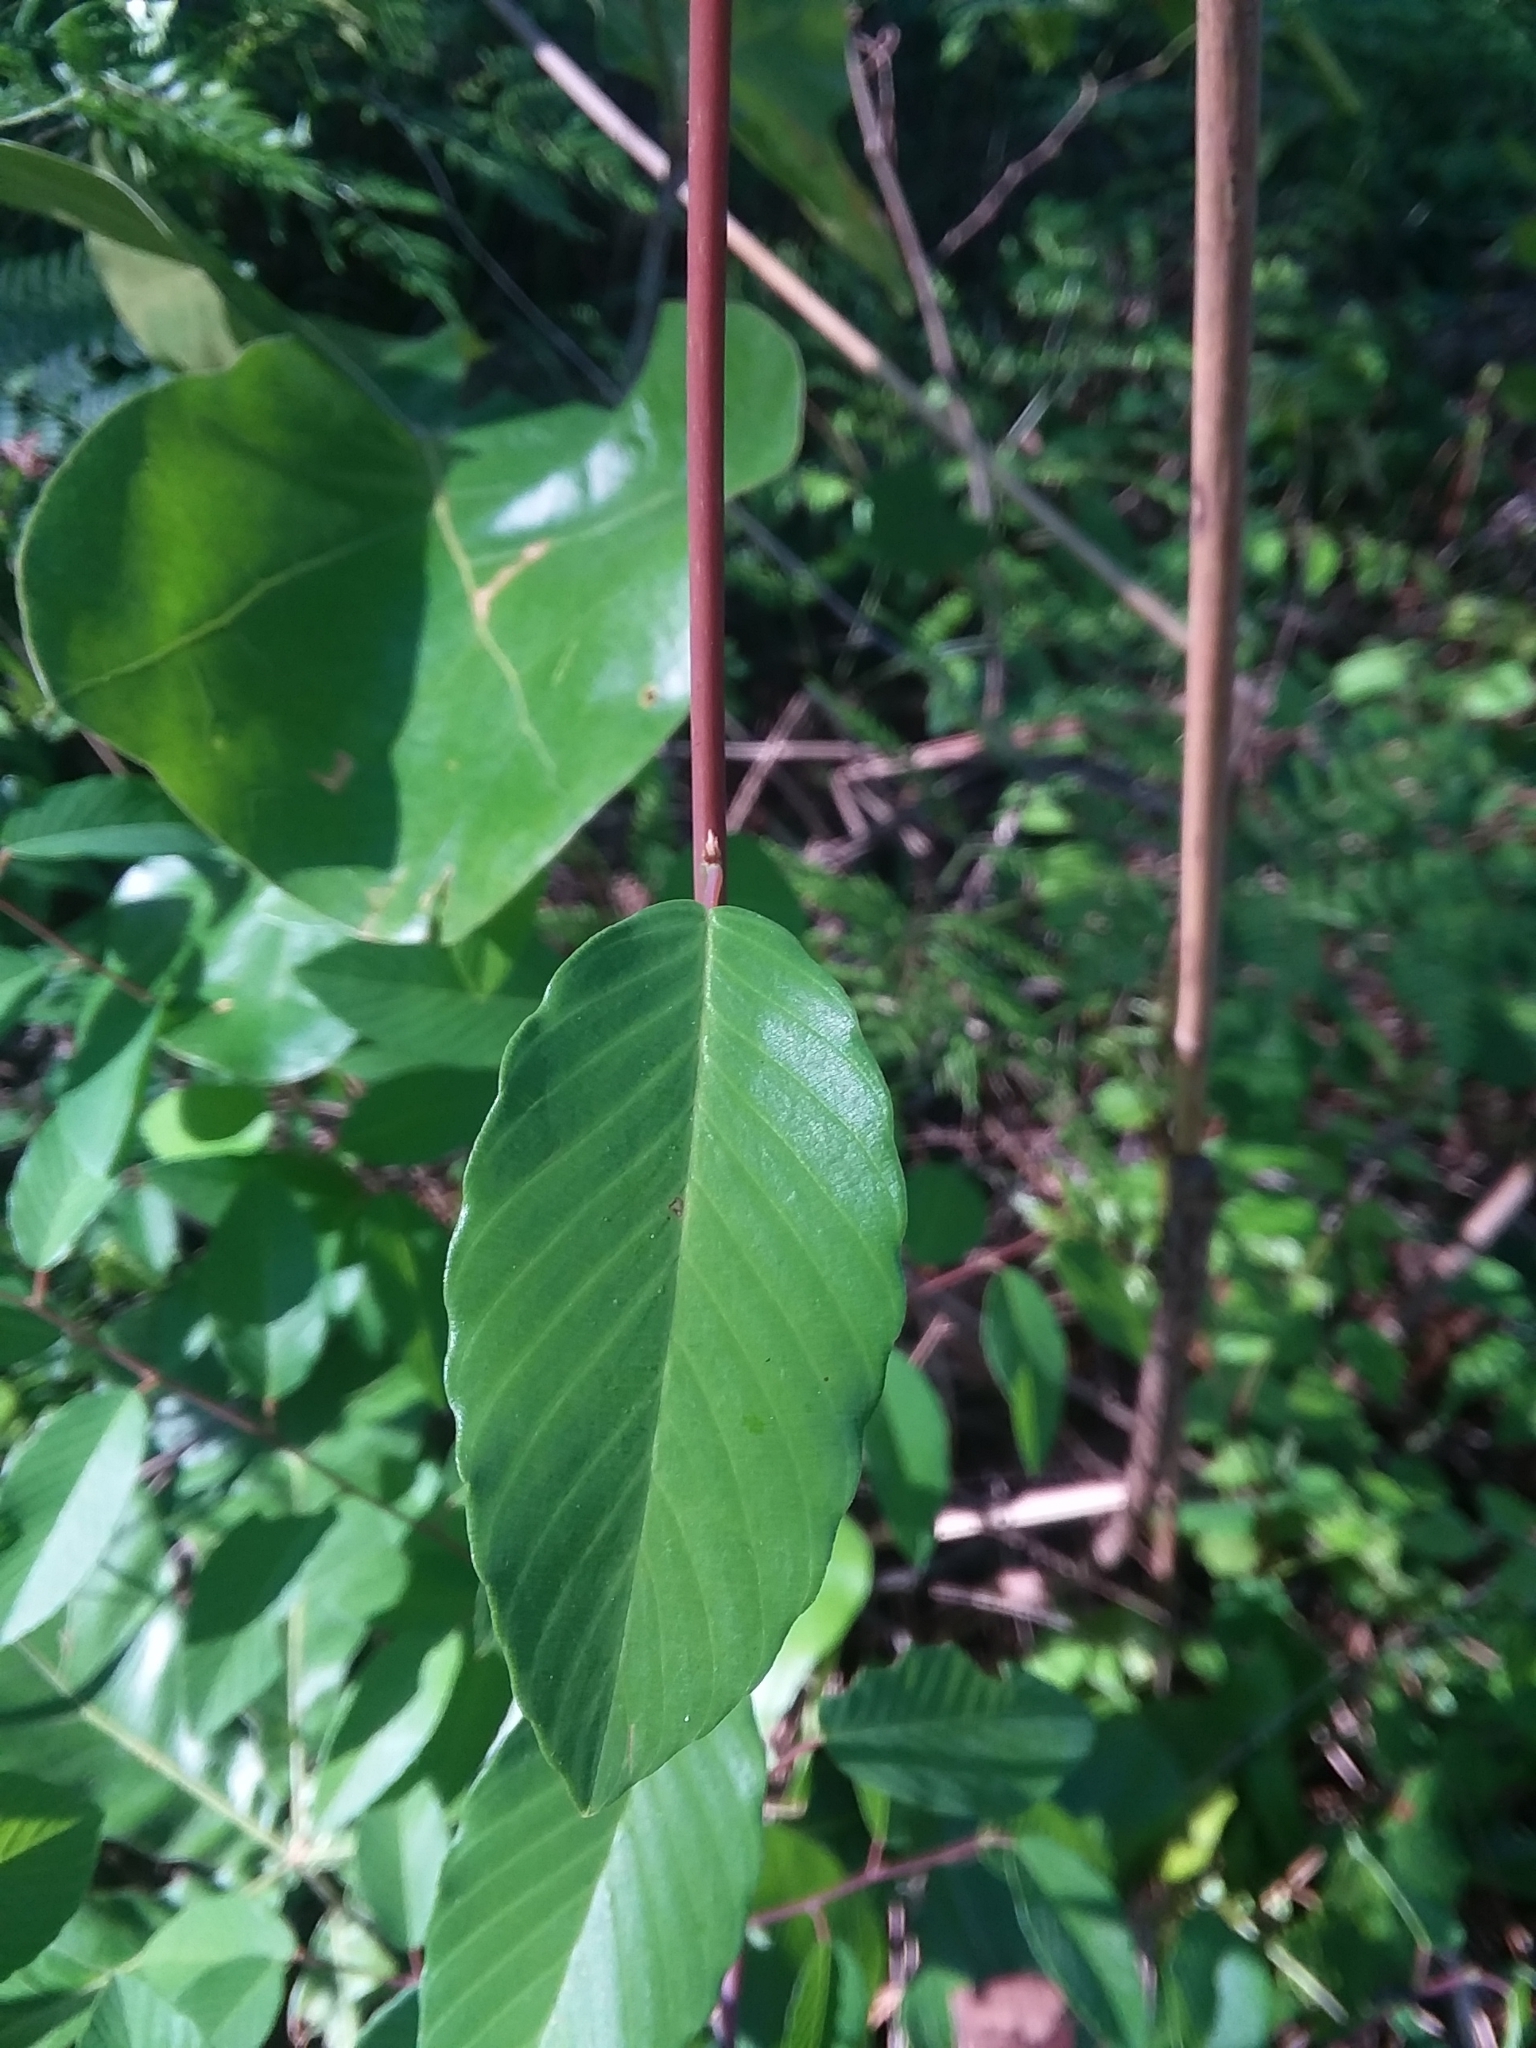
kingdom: Plantae
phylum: Tracheophyta
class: Magnoliopsida
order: Rosales
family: Rhamnaceae
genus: Berchemia
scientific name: Berchemia scandens
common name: Supplejack
